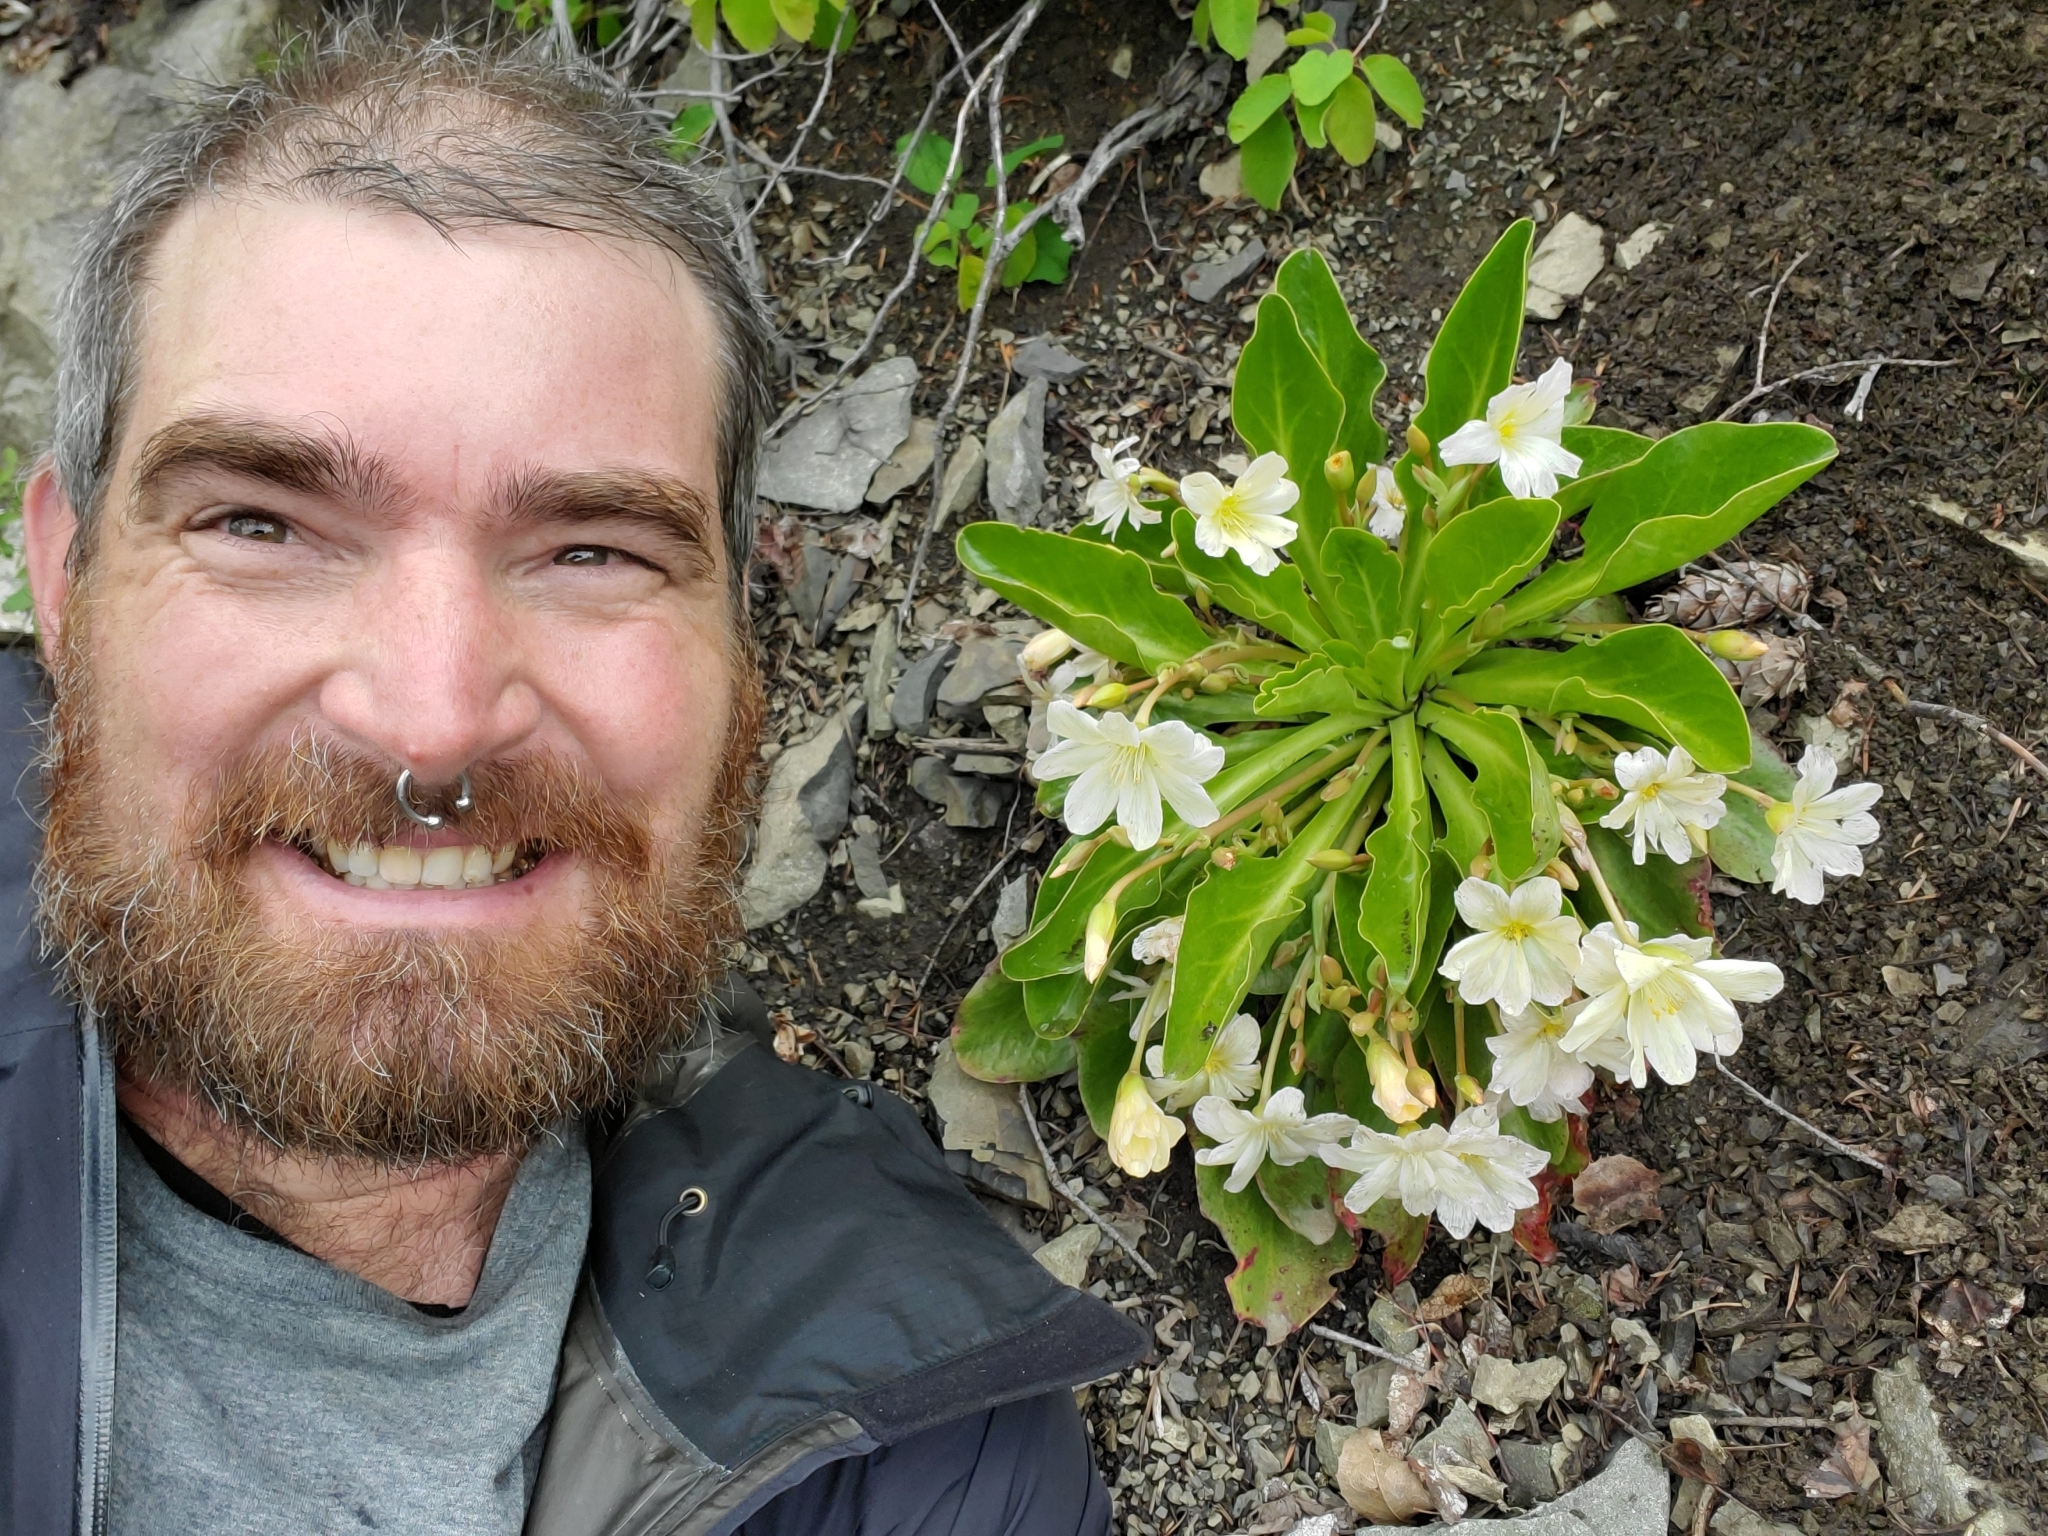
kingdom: Plantae
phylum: Tracheophyta
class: Magnoliopsida
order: Caryophyllales
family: Montiaceae
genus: Lewisiopsis
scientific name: Lewisiopsis tweedyi
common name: Tweedy's pussypaws
